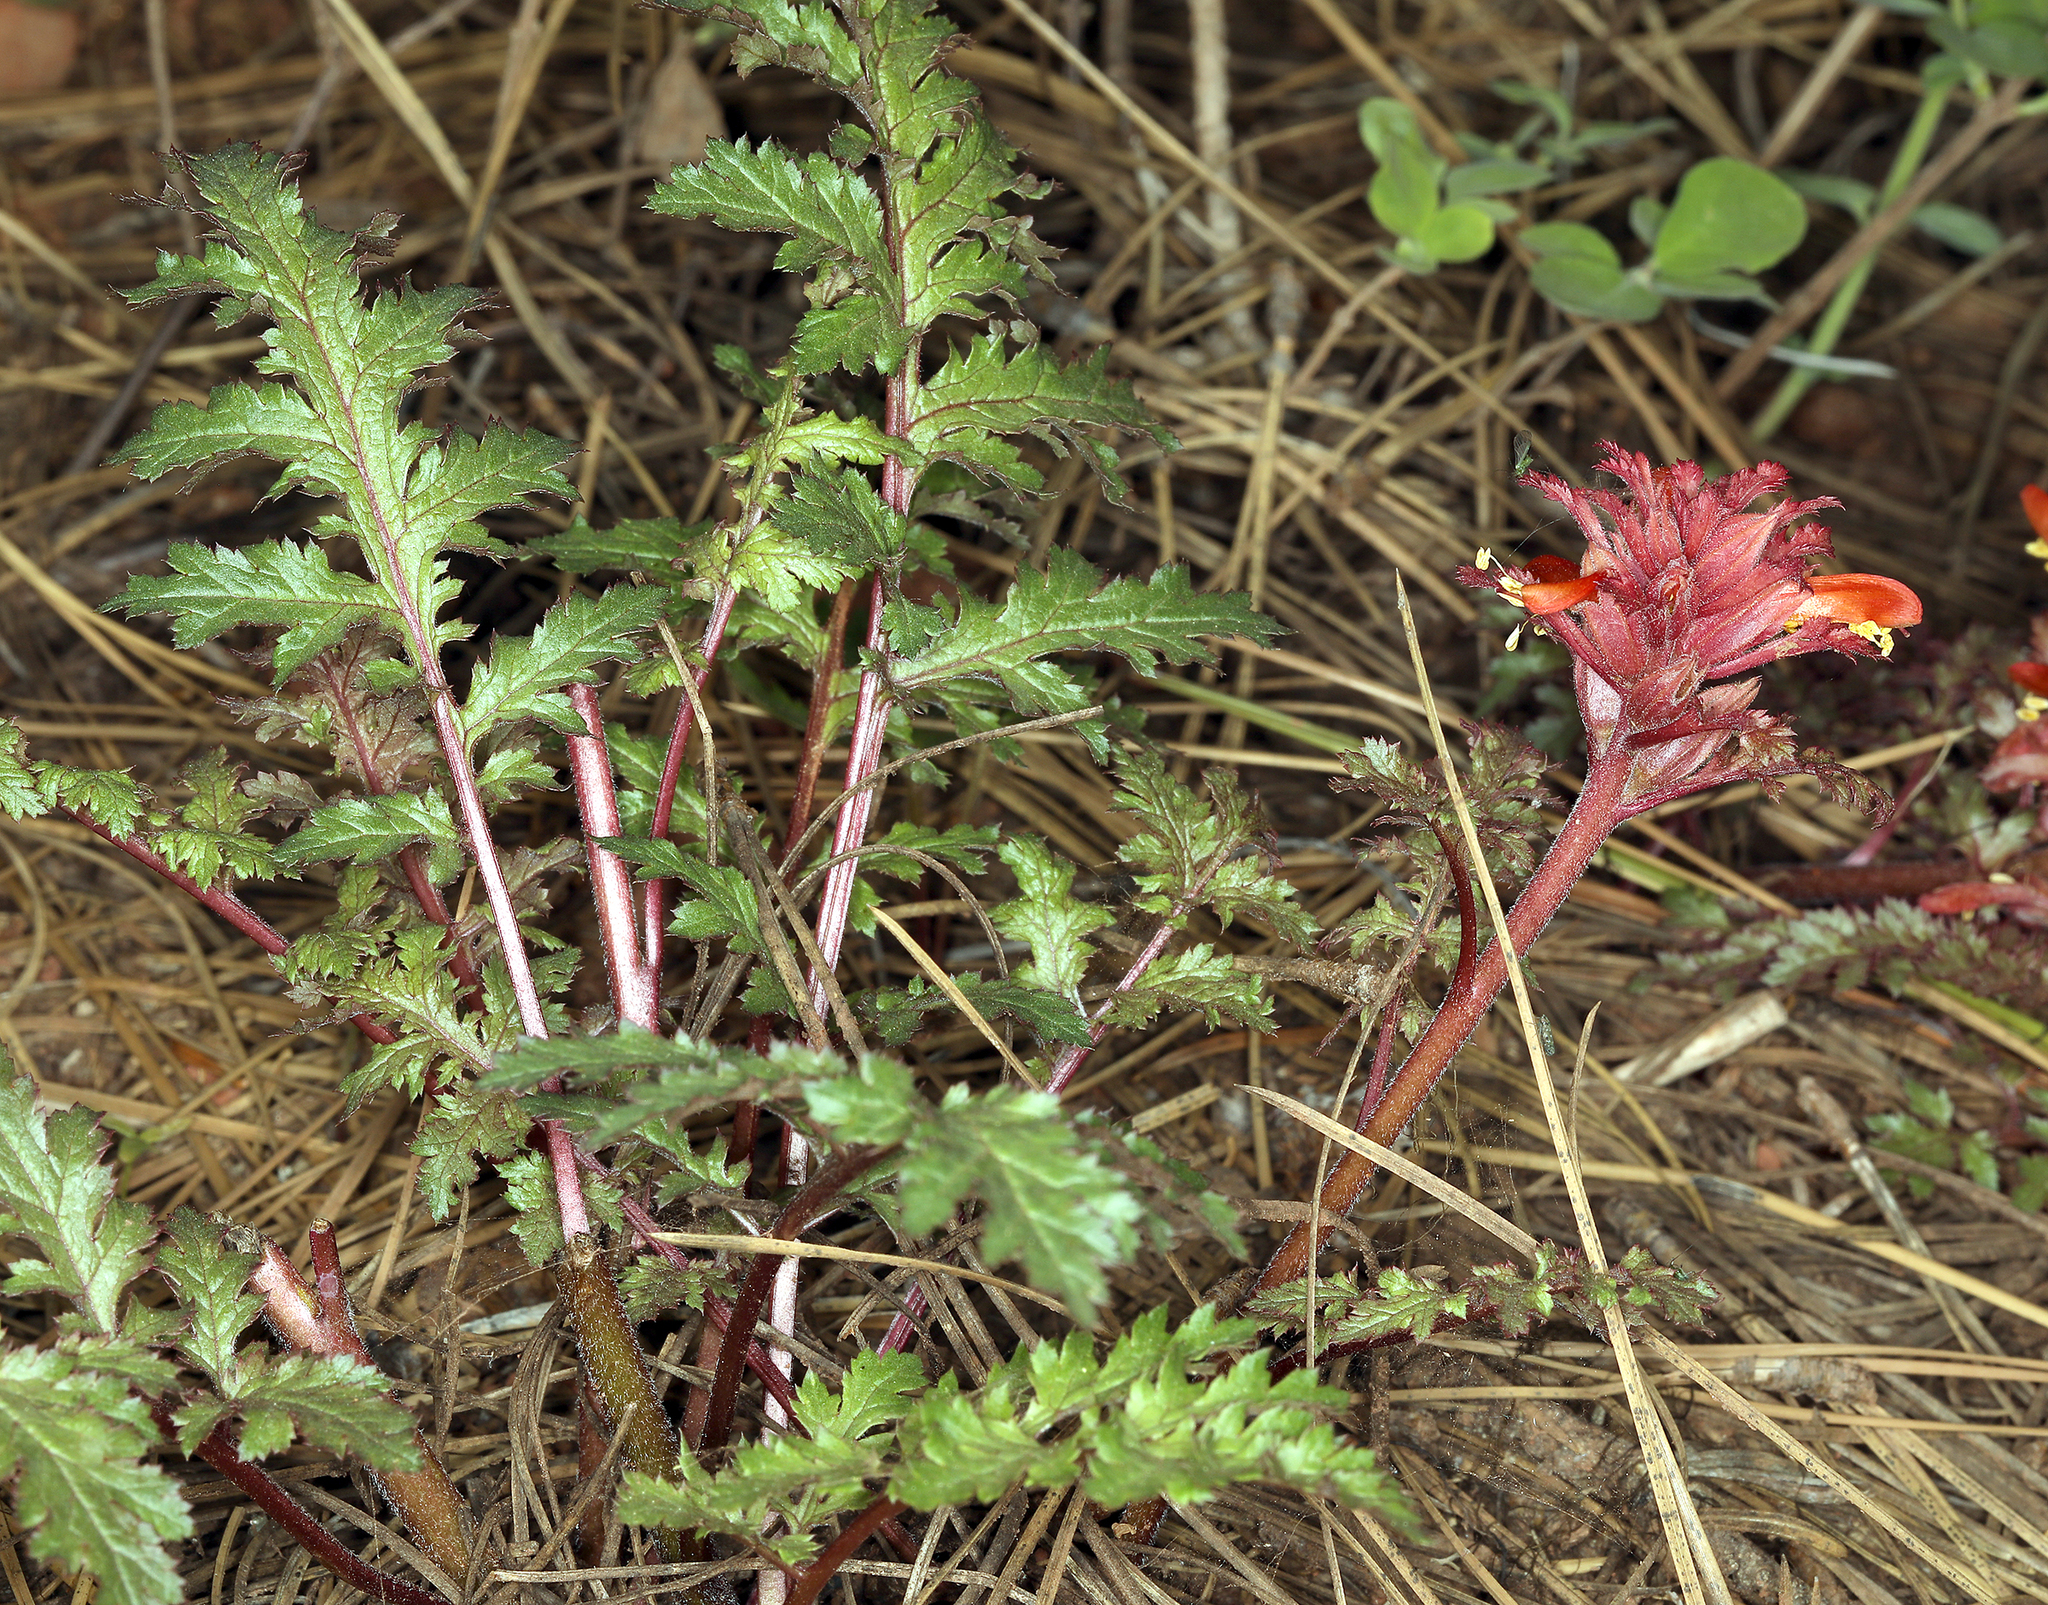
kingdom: Plantae
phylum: Tracheophyta
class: Magnoliopsida
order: Lamiales
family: Orobanchaceae
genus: Pedicularis
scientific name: Pedicularis densiflora
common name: Indian warrior
